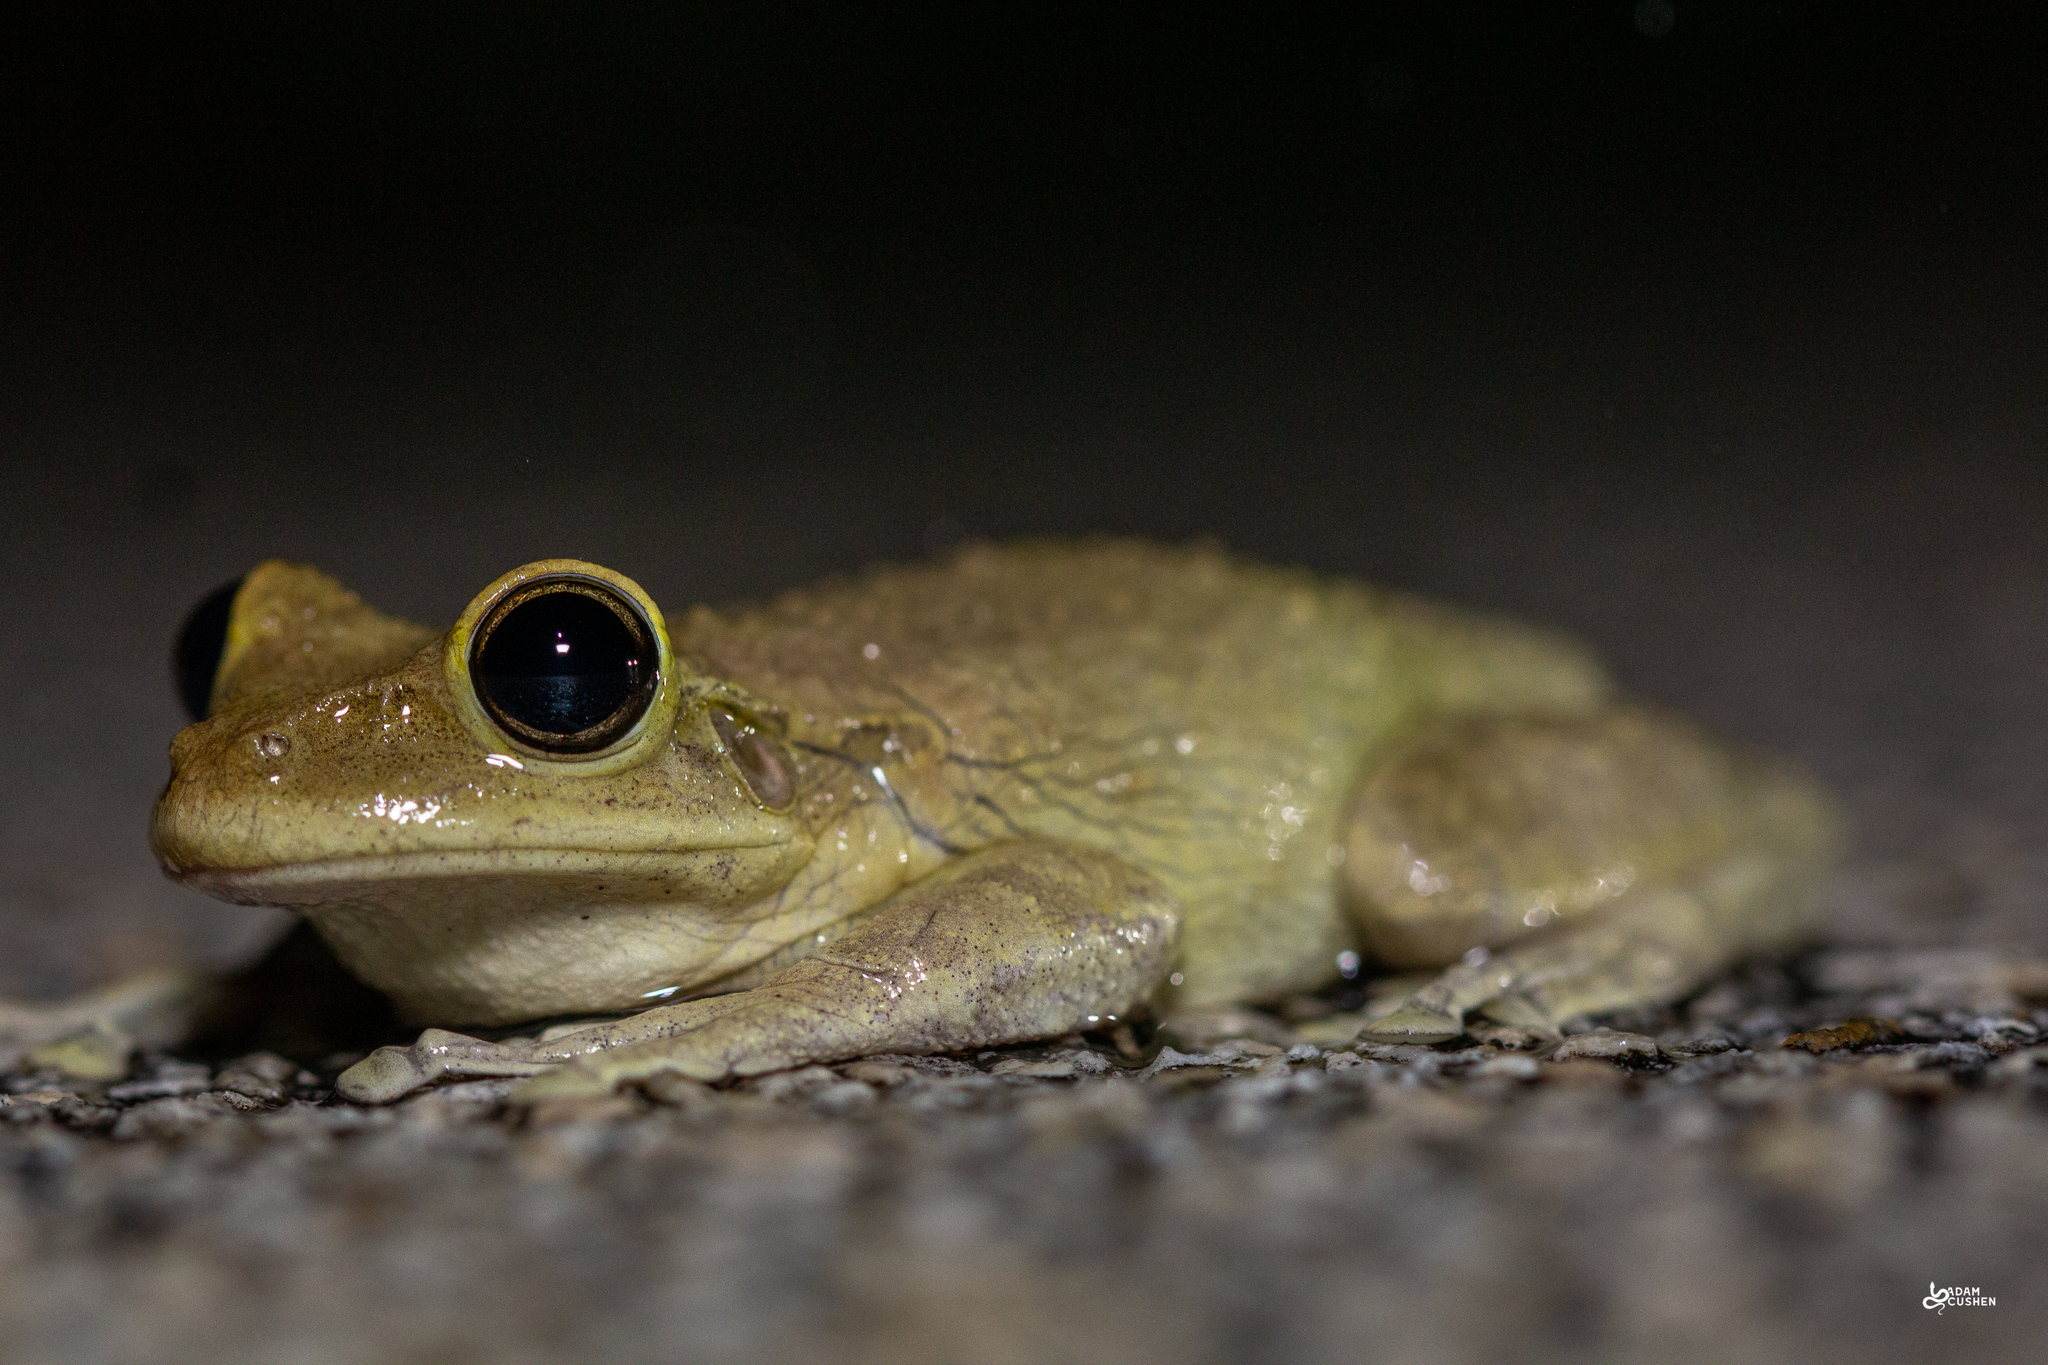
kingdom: Animalia
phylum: Chordata
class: Amphibia
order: Anura
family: Hylidae
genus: Osteopilus
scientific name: Osteopilus septentrionalis
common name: Cuban treefrog
